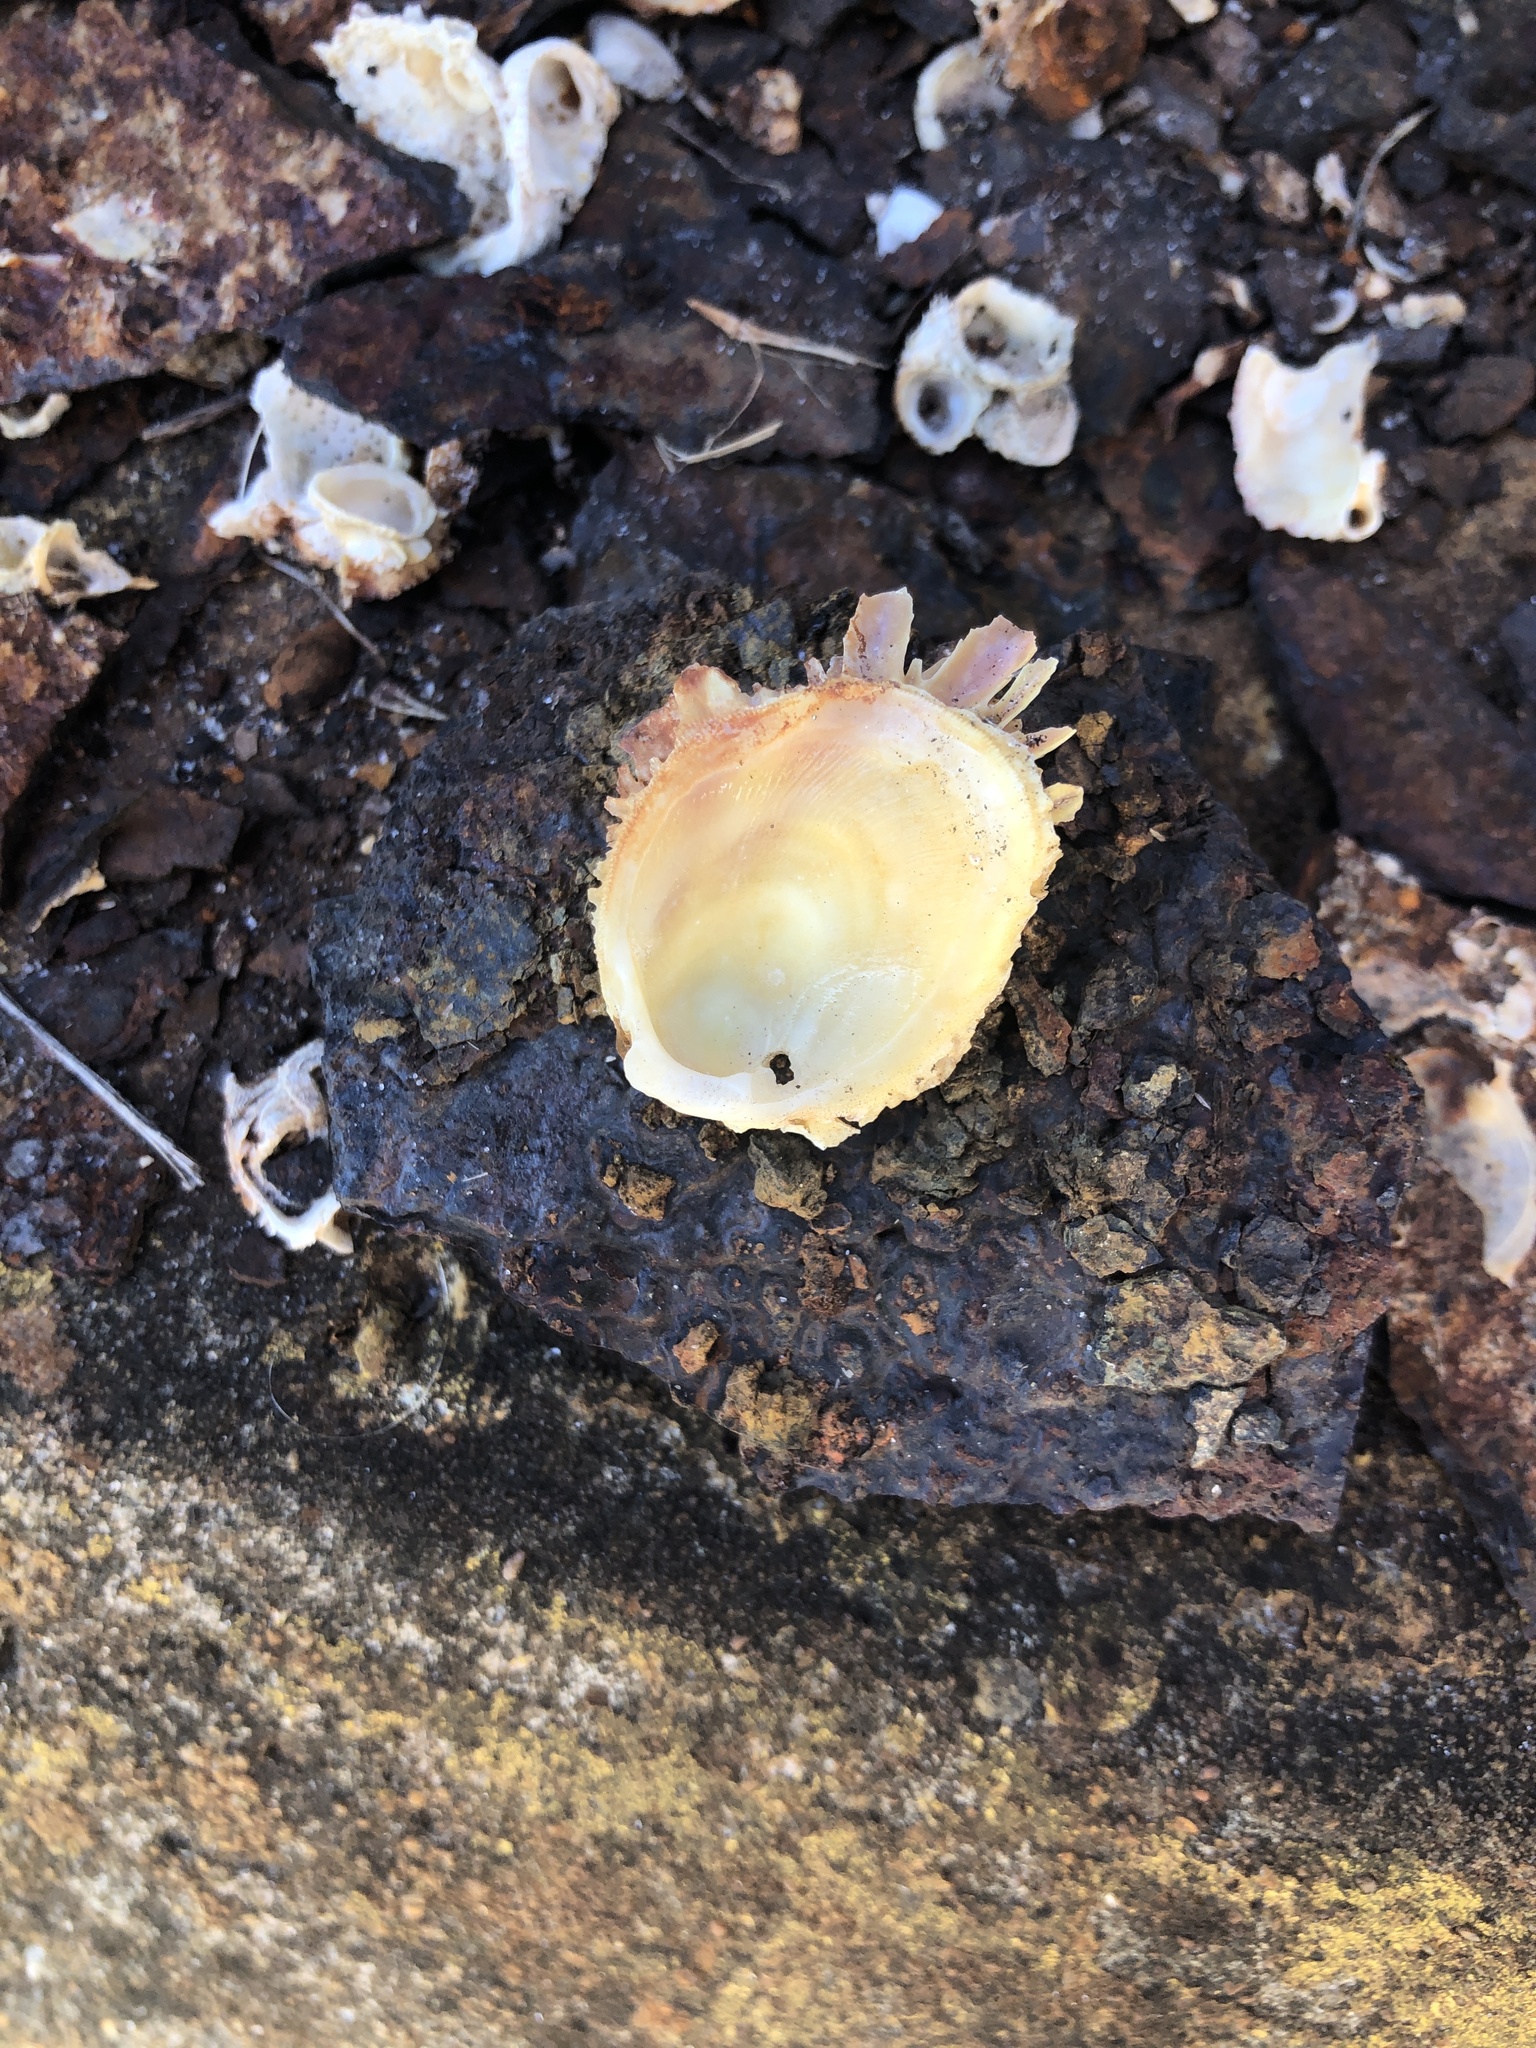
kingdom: Animalia
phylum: Mollusca
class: Bivalvia
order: Venerida
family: Chamidae
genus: Chama
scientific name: Chama macerophylla
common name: Leafy jewelbox
